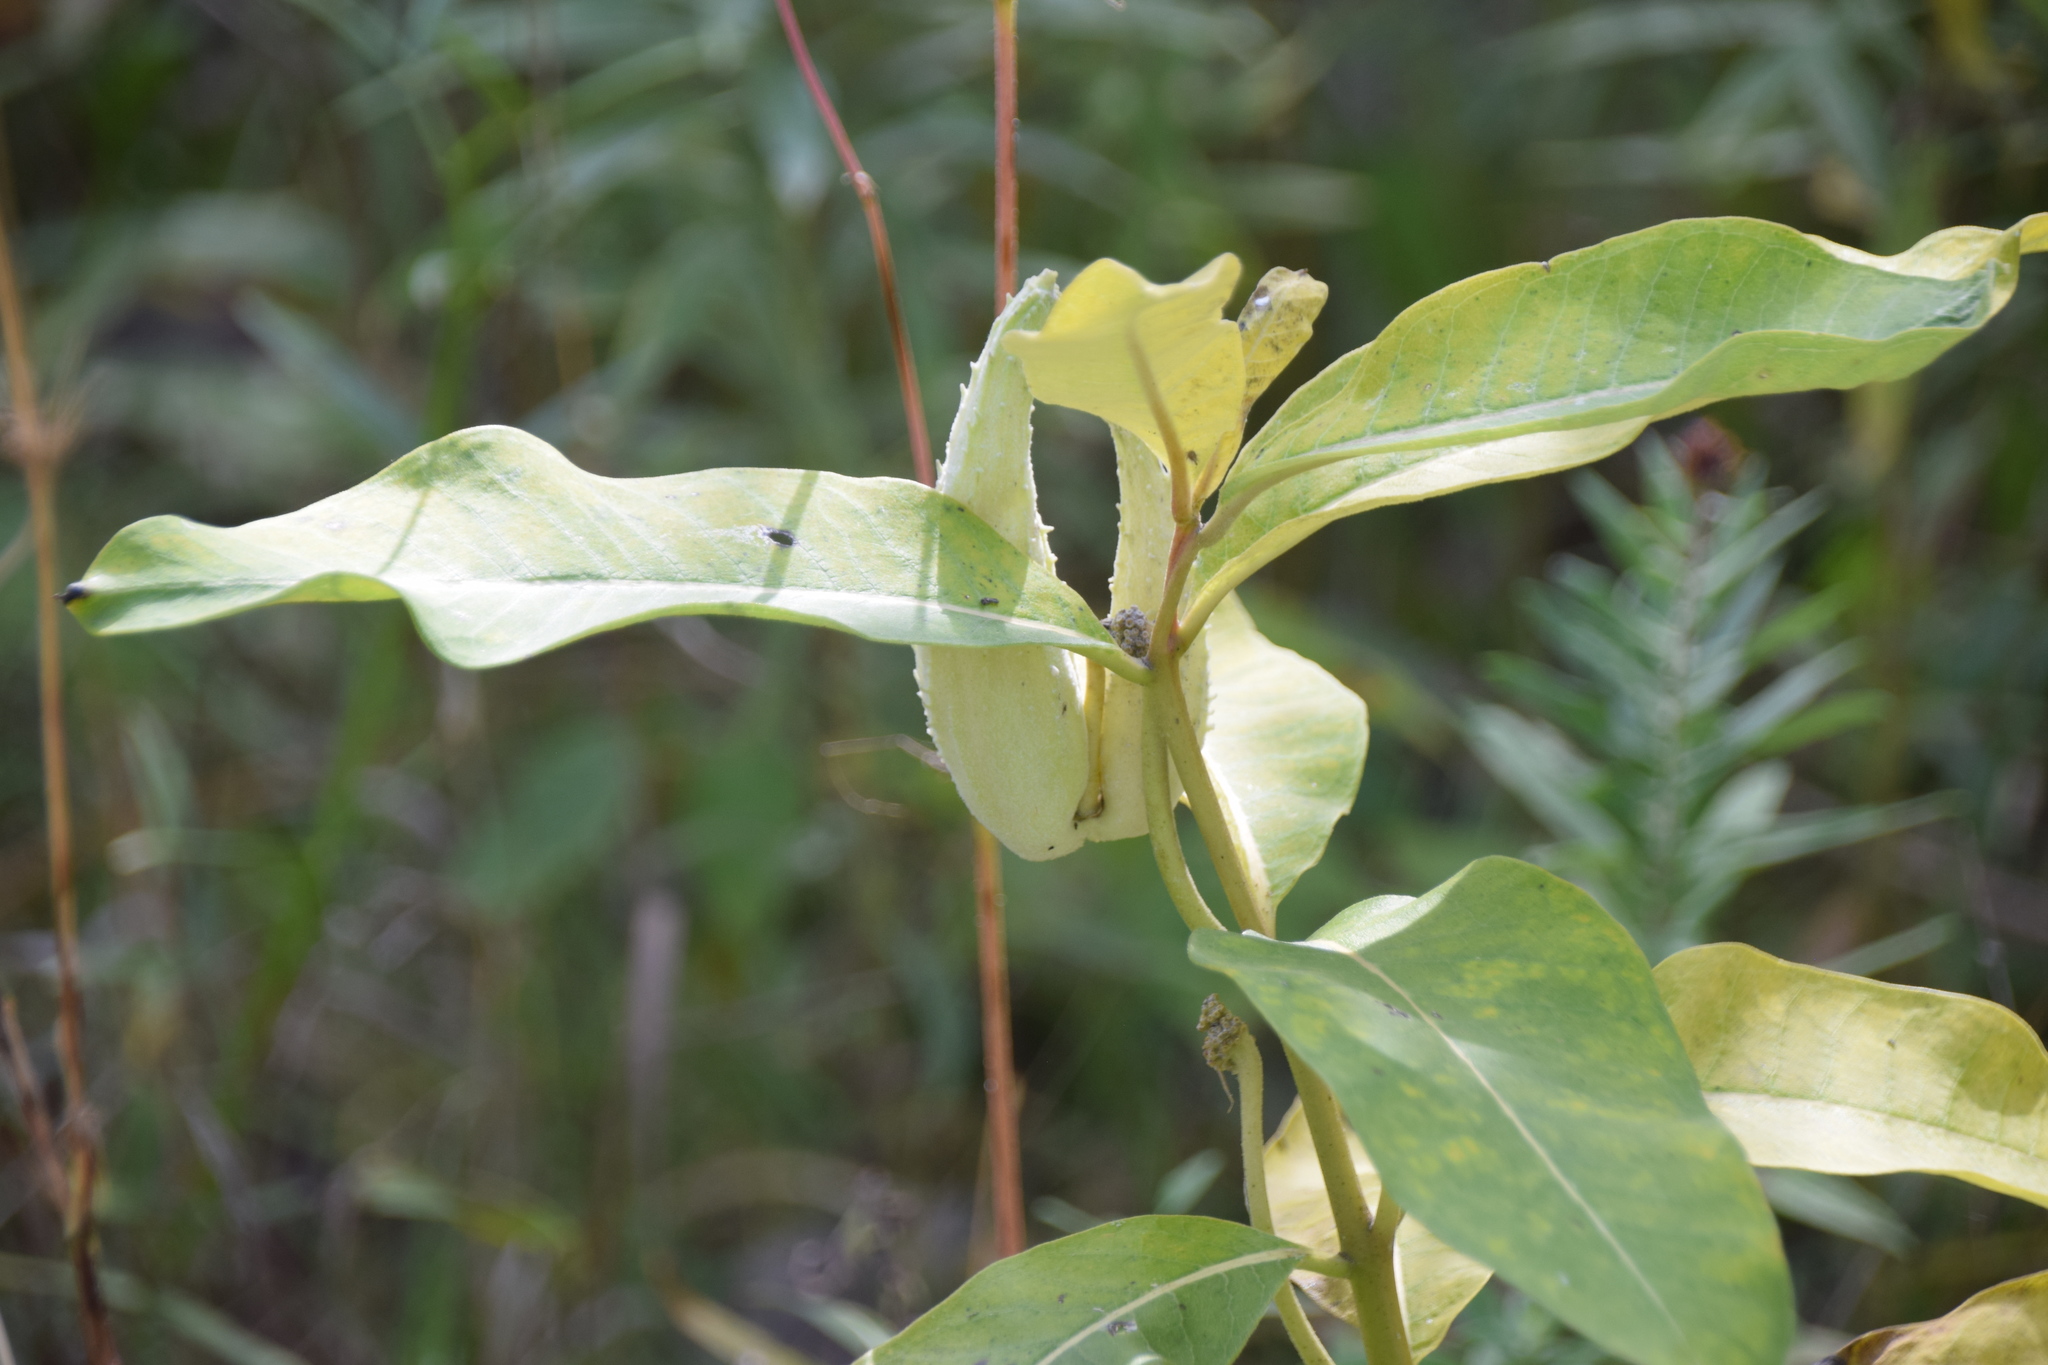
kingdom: Plantae
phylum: Tracheophyta
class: Magnoliopsida
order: Gentianales
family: Apocynaceae
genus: Asclepias
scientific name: Asclepias syriaca
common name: Common milkweed
